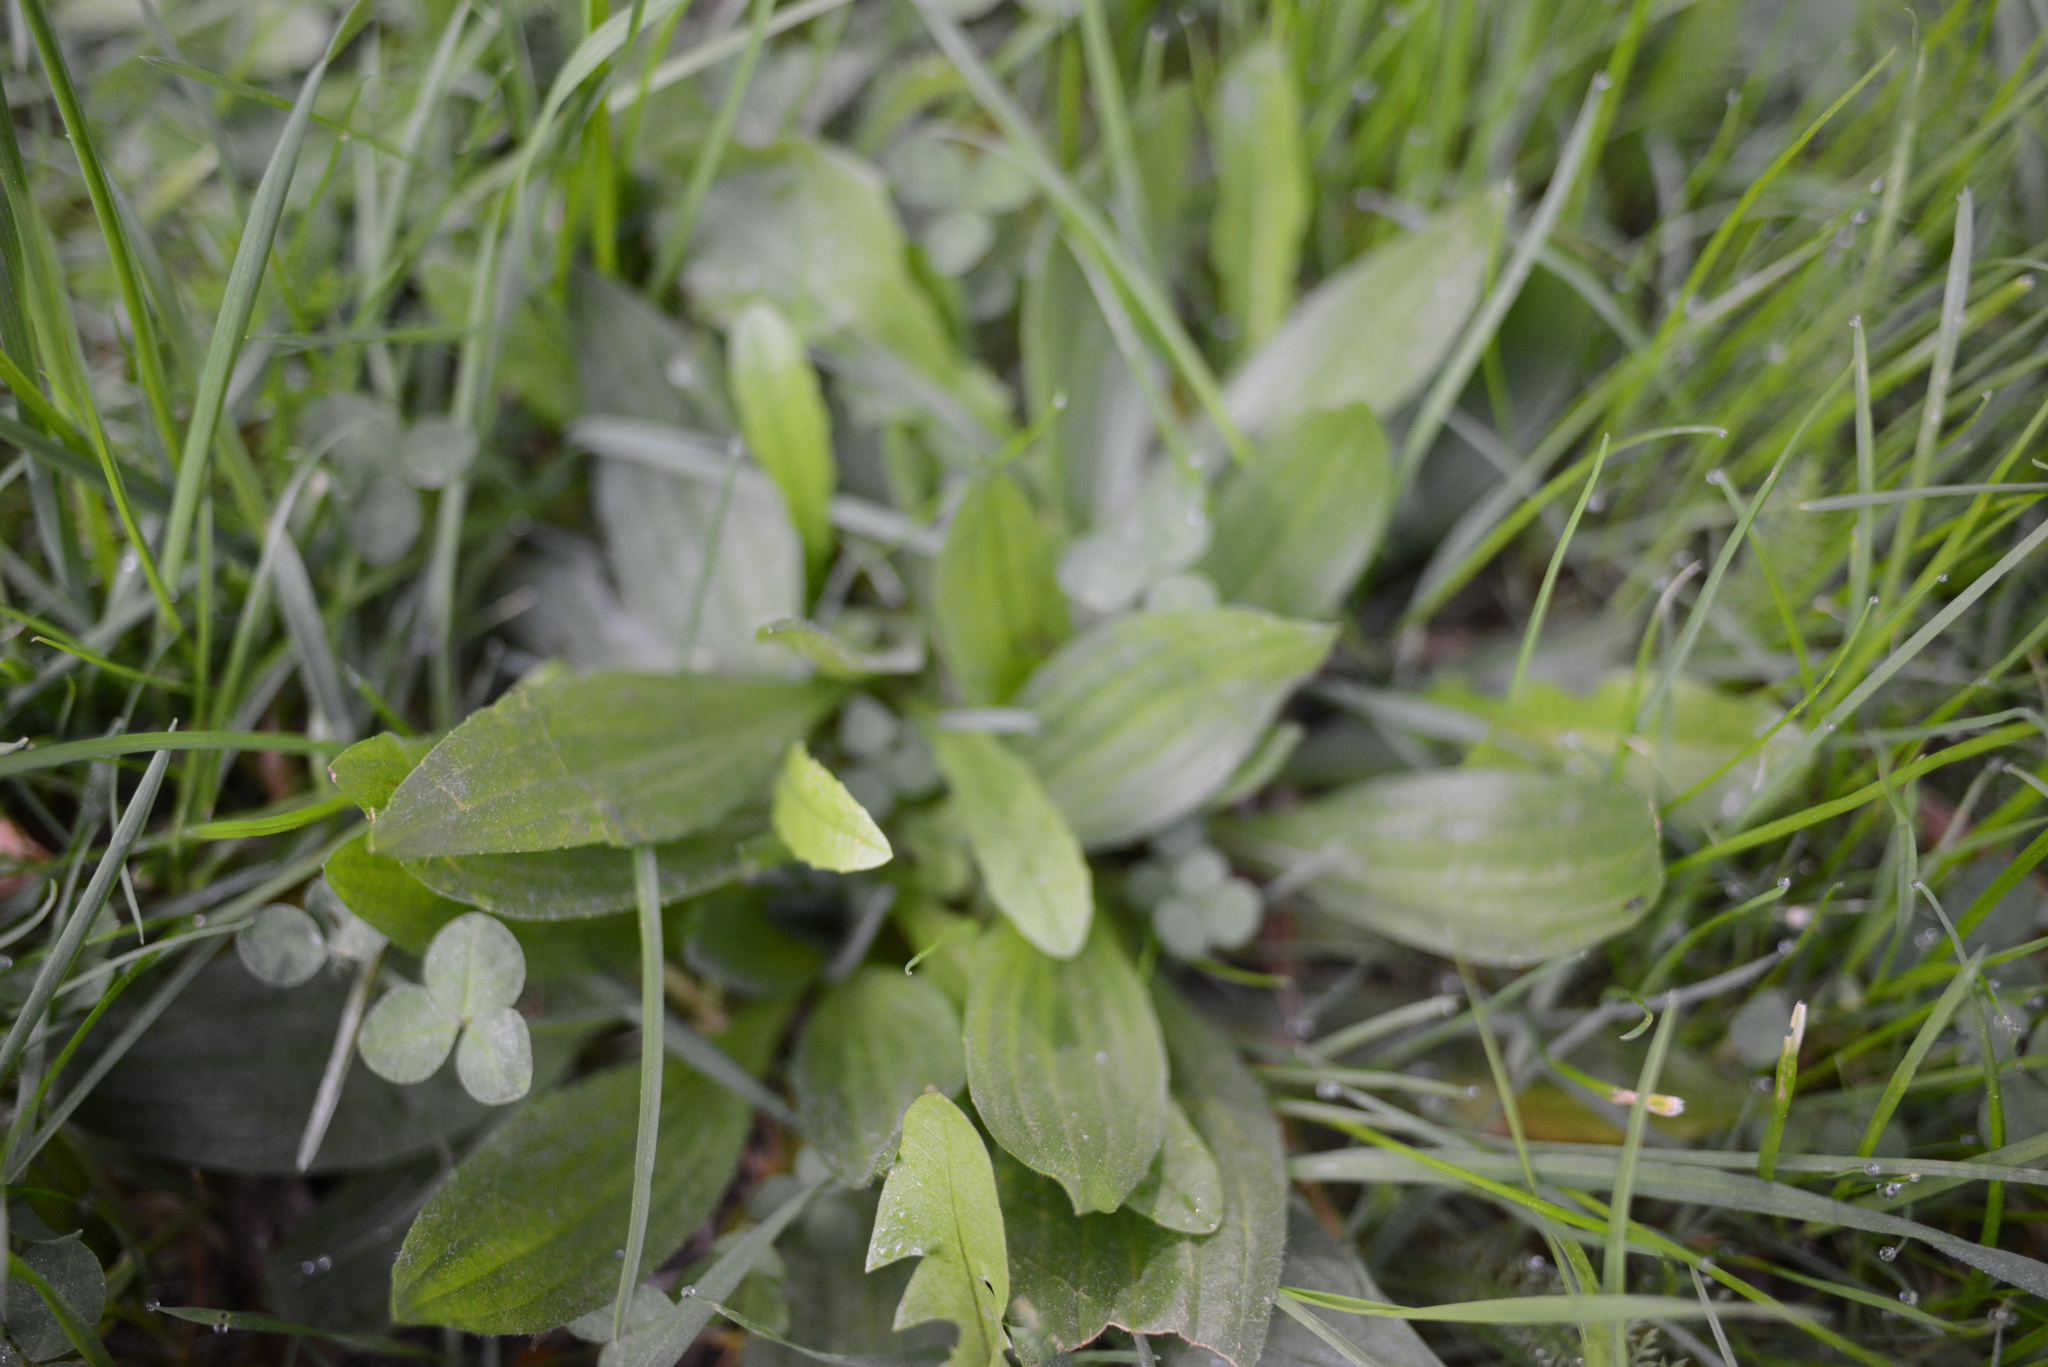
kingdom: Plantae
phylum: Tracheophyta
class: Magnoliopsida
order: Lamiales
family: Plantaginaceae
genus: Plantago
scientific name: Plantago lanceolata
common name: Ribwort plantain
